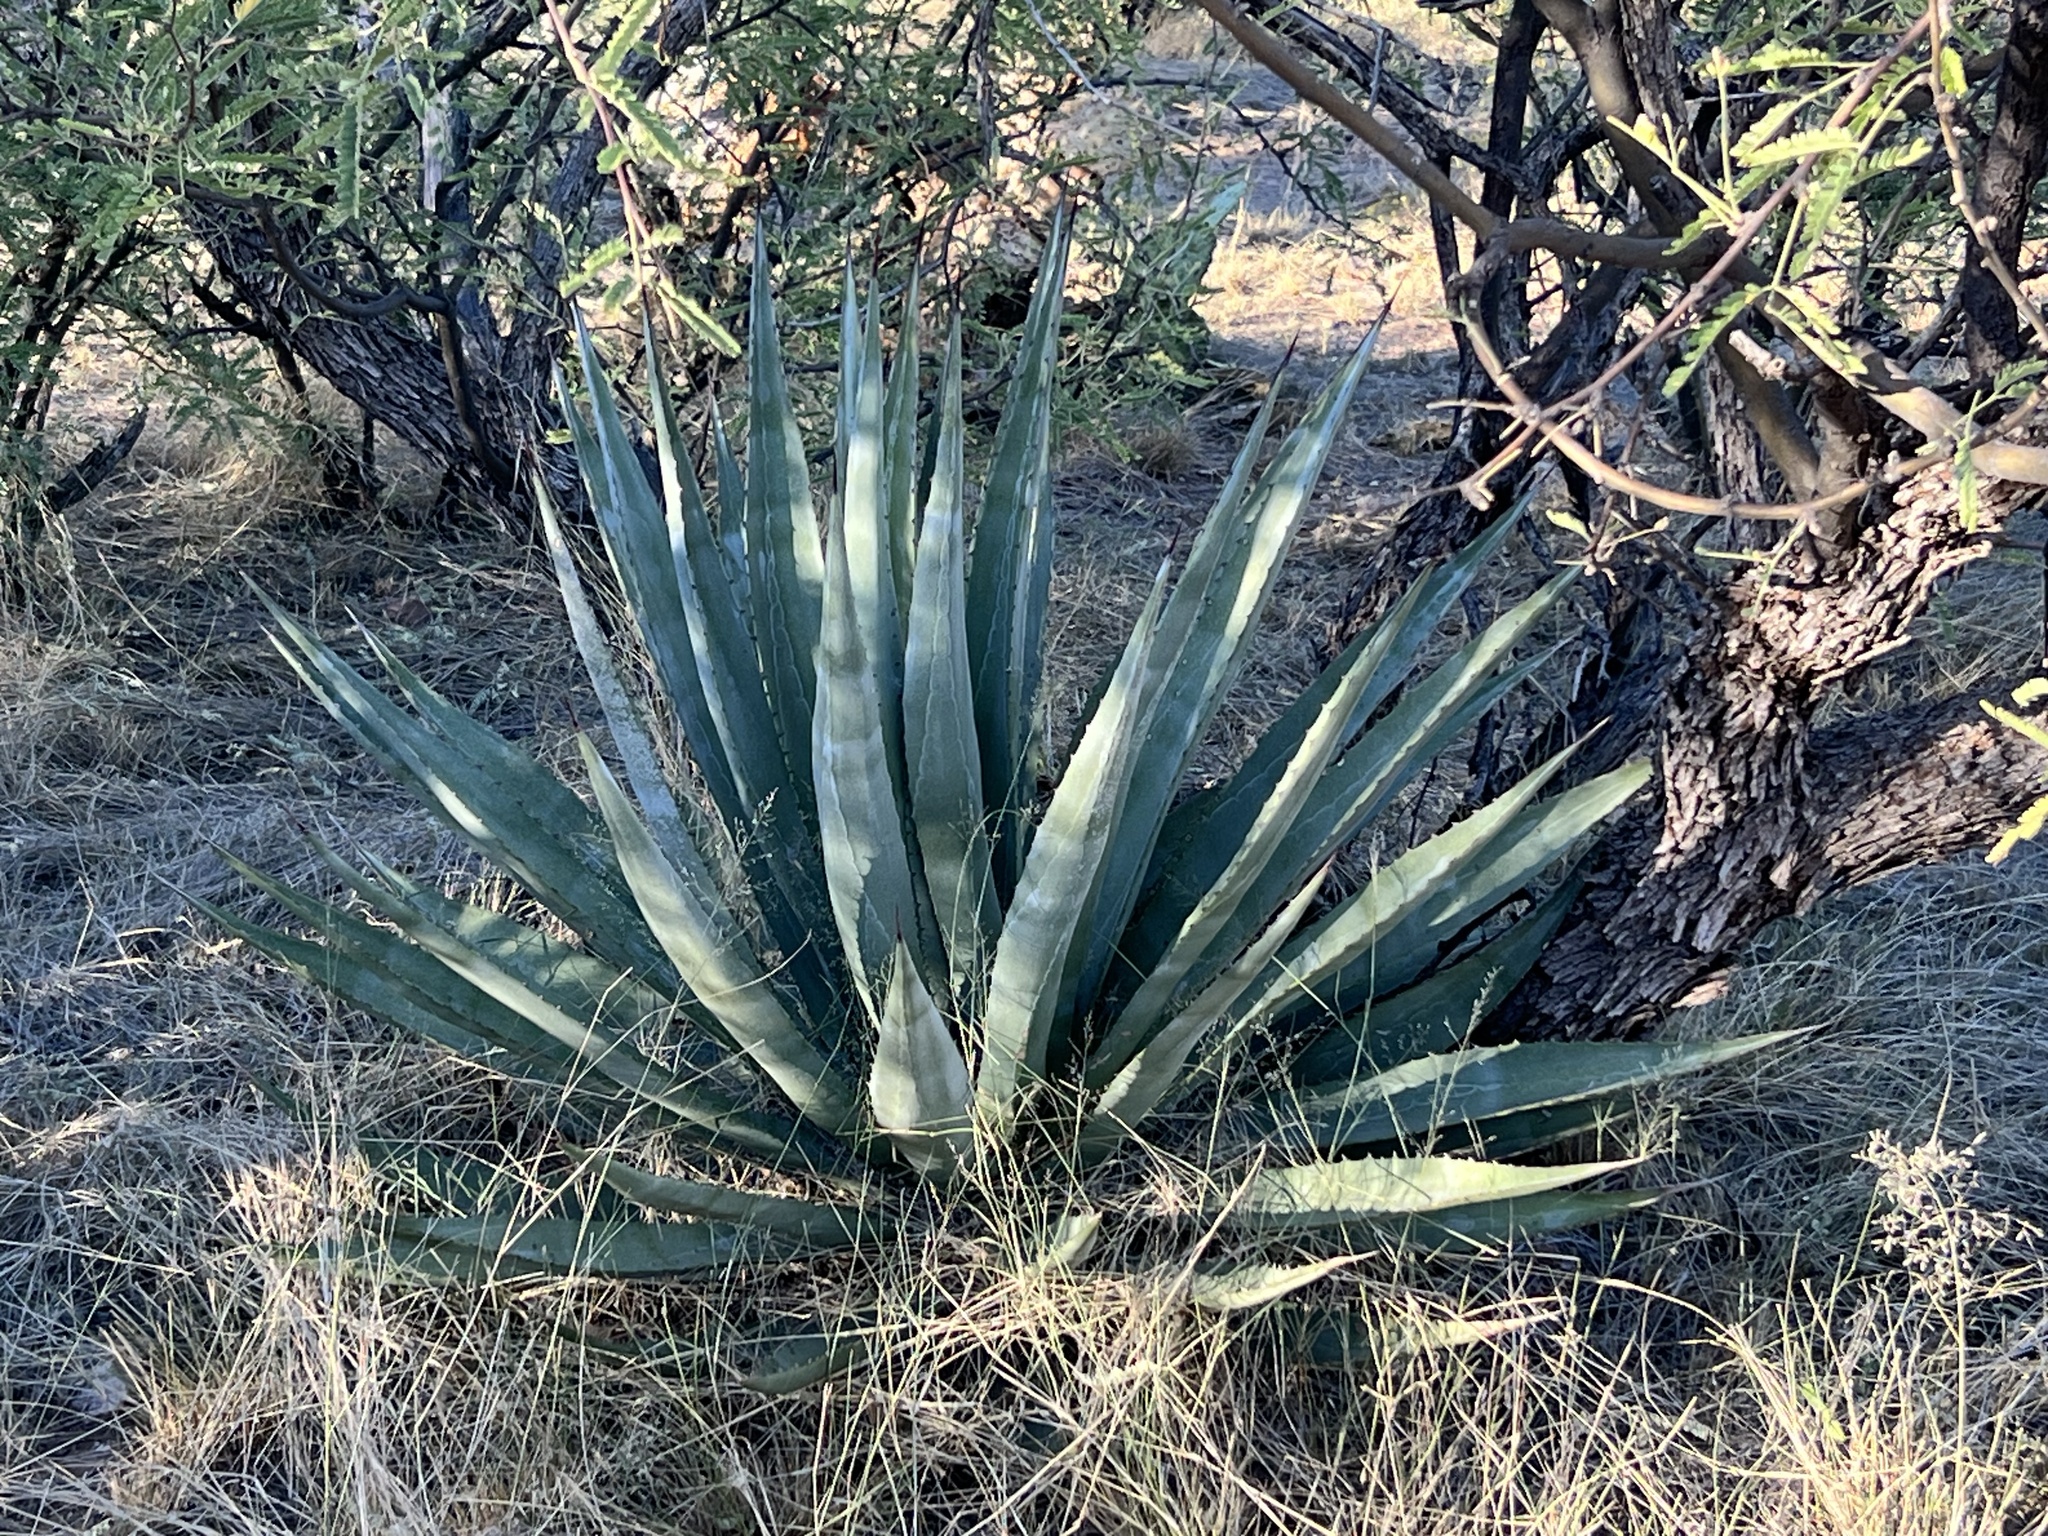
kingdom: Plantae
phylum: Tracheophyta
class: Liliopsida
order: Asparagales
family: Asparagaceae
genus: Agave
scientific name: Agave palmeri
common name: Palmer agave
